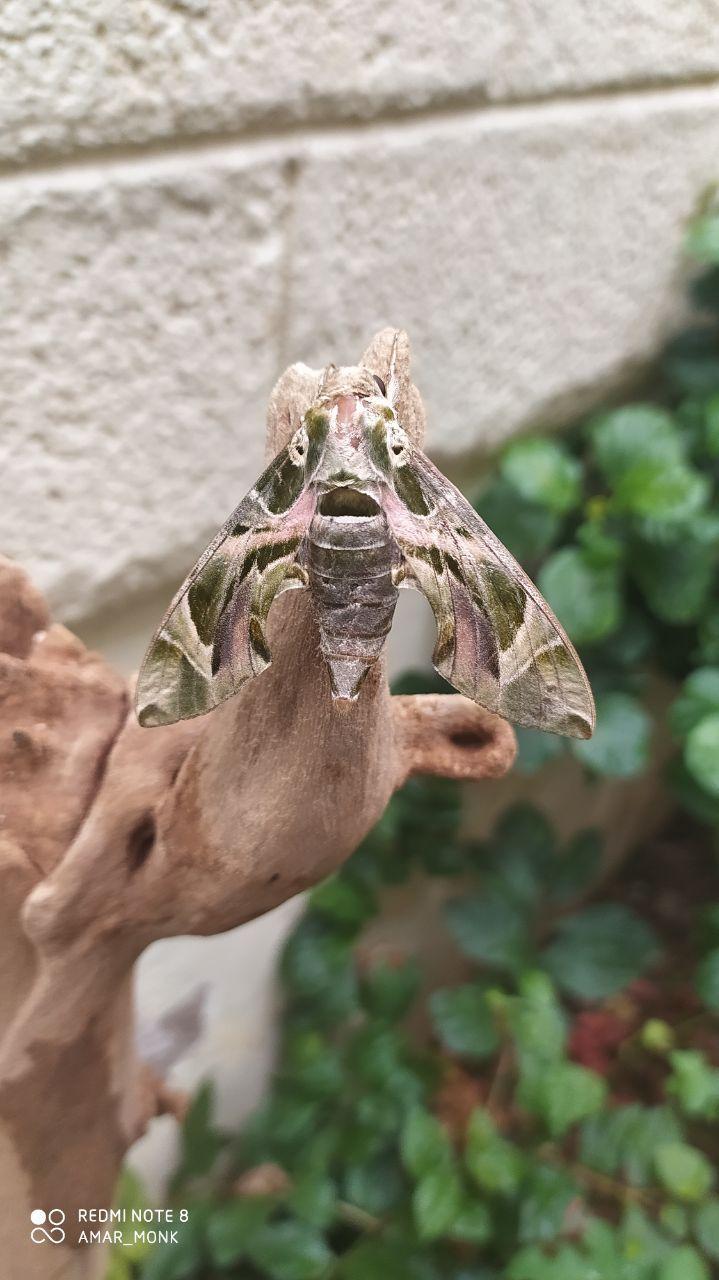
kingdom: Animalia
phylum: Arthropoda
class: Insecta
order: Lepidoptera
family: Sphingidae
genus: Daphnis
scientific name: Daphnis nerii
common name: Oleander hawk-moth
